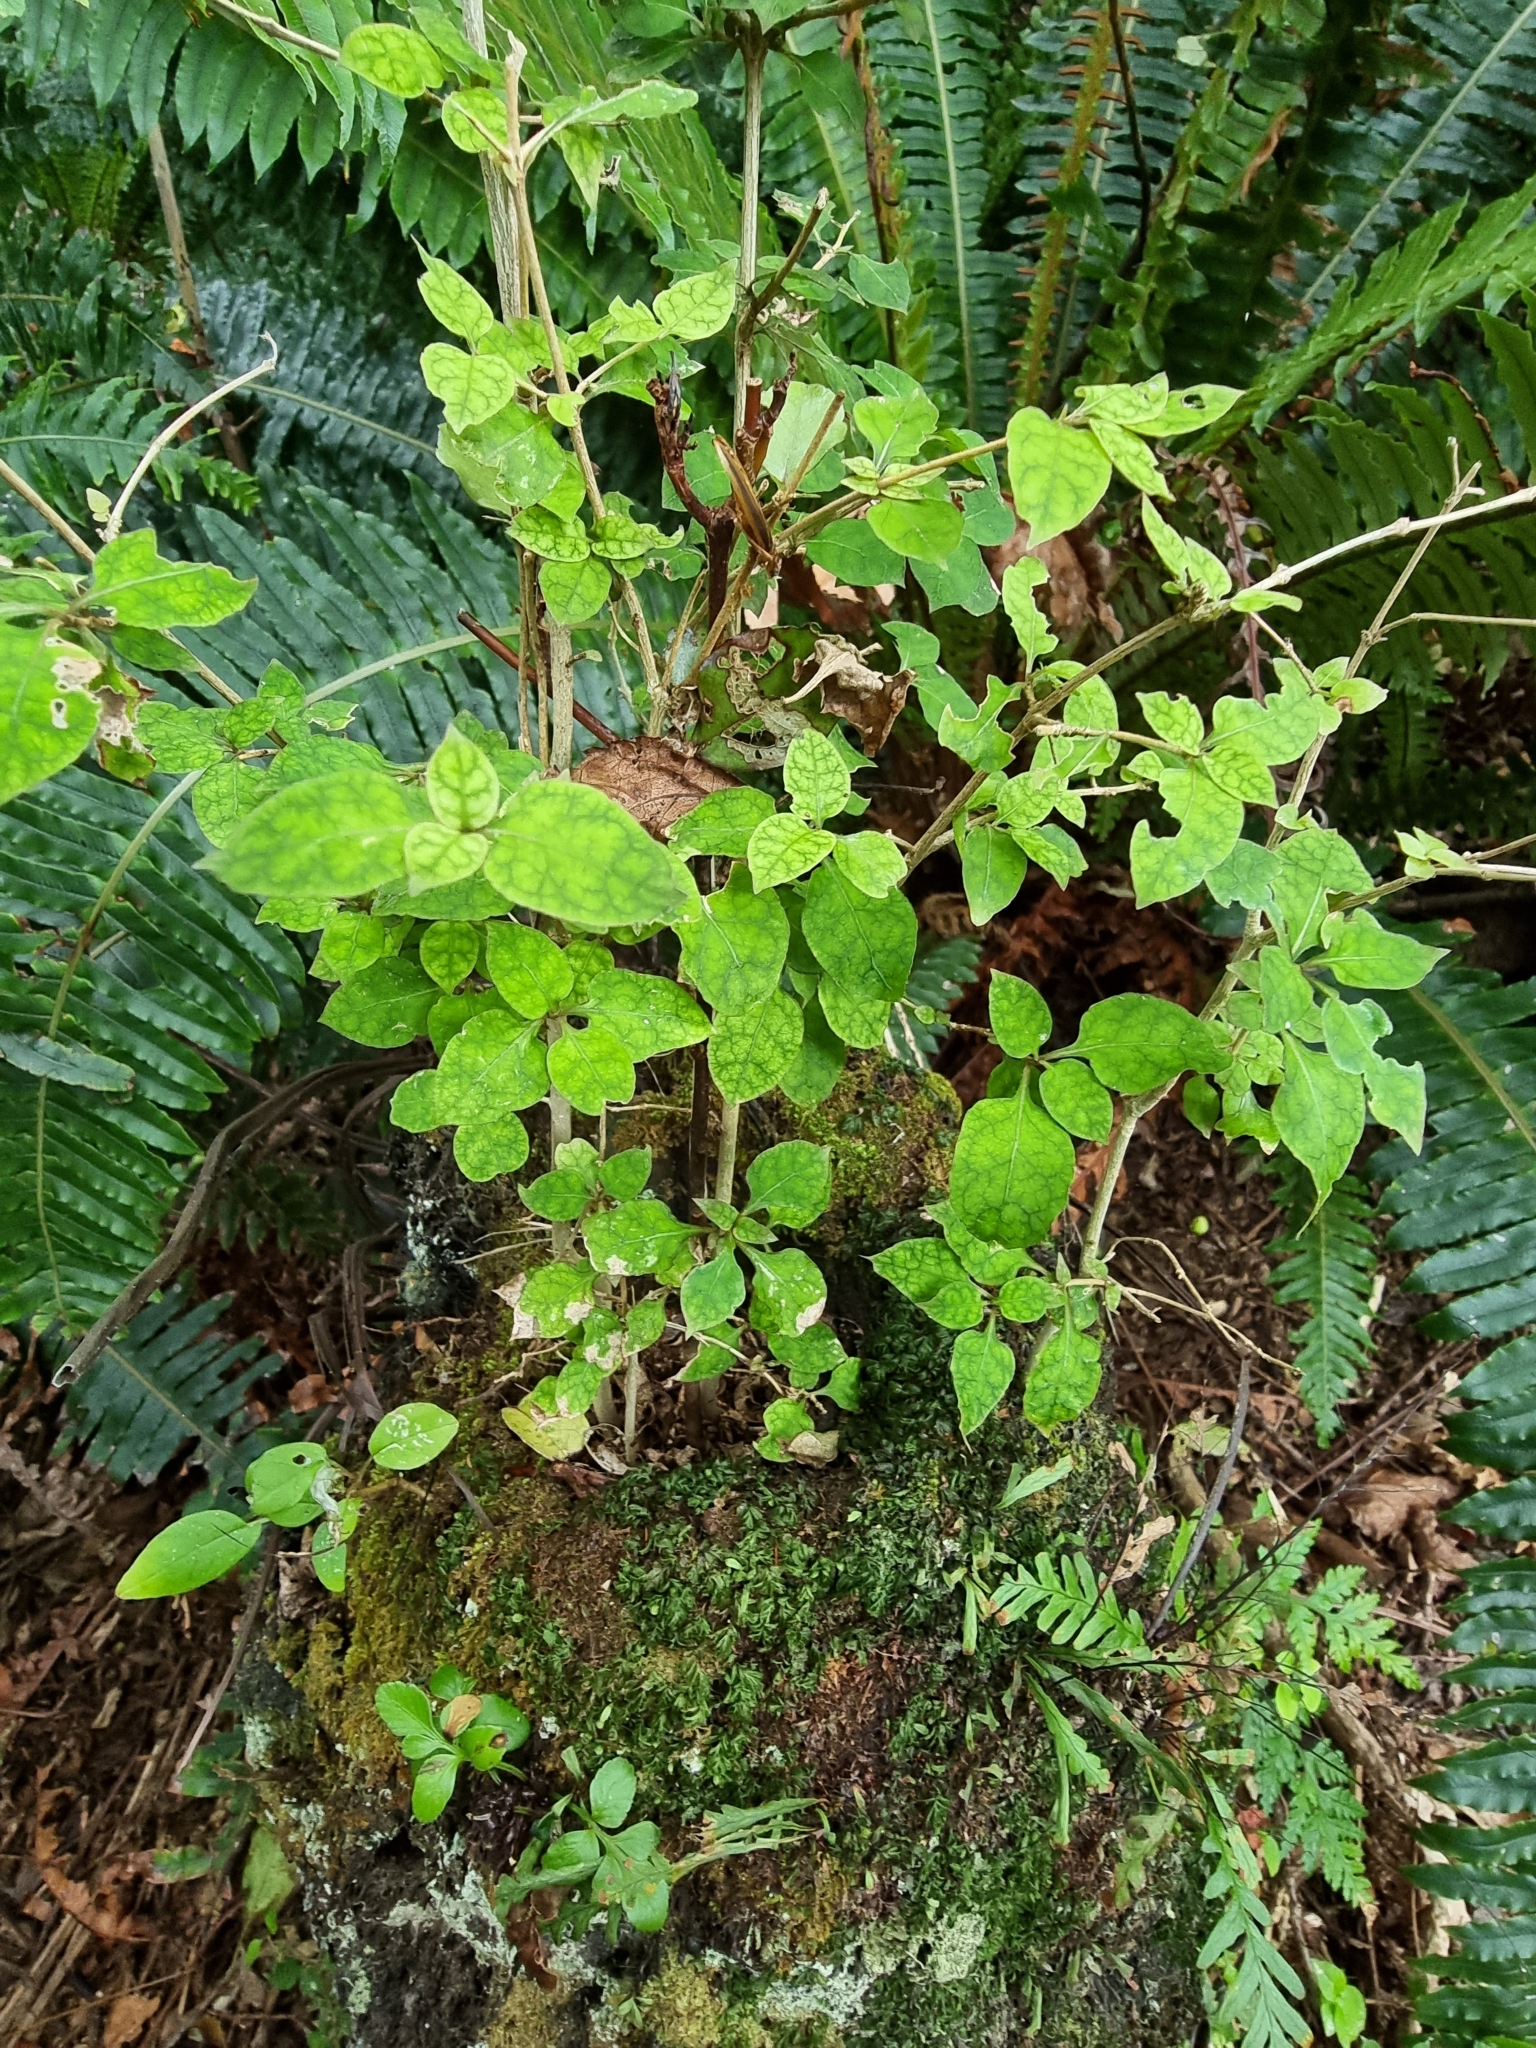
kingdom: Plantae
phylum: Tracheophyta
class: Magnoliopsida
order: Gentianales
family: Rubiaceae
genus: Coprosma
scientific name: Coprosma areolata
